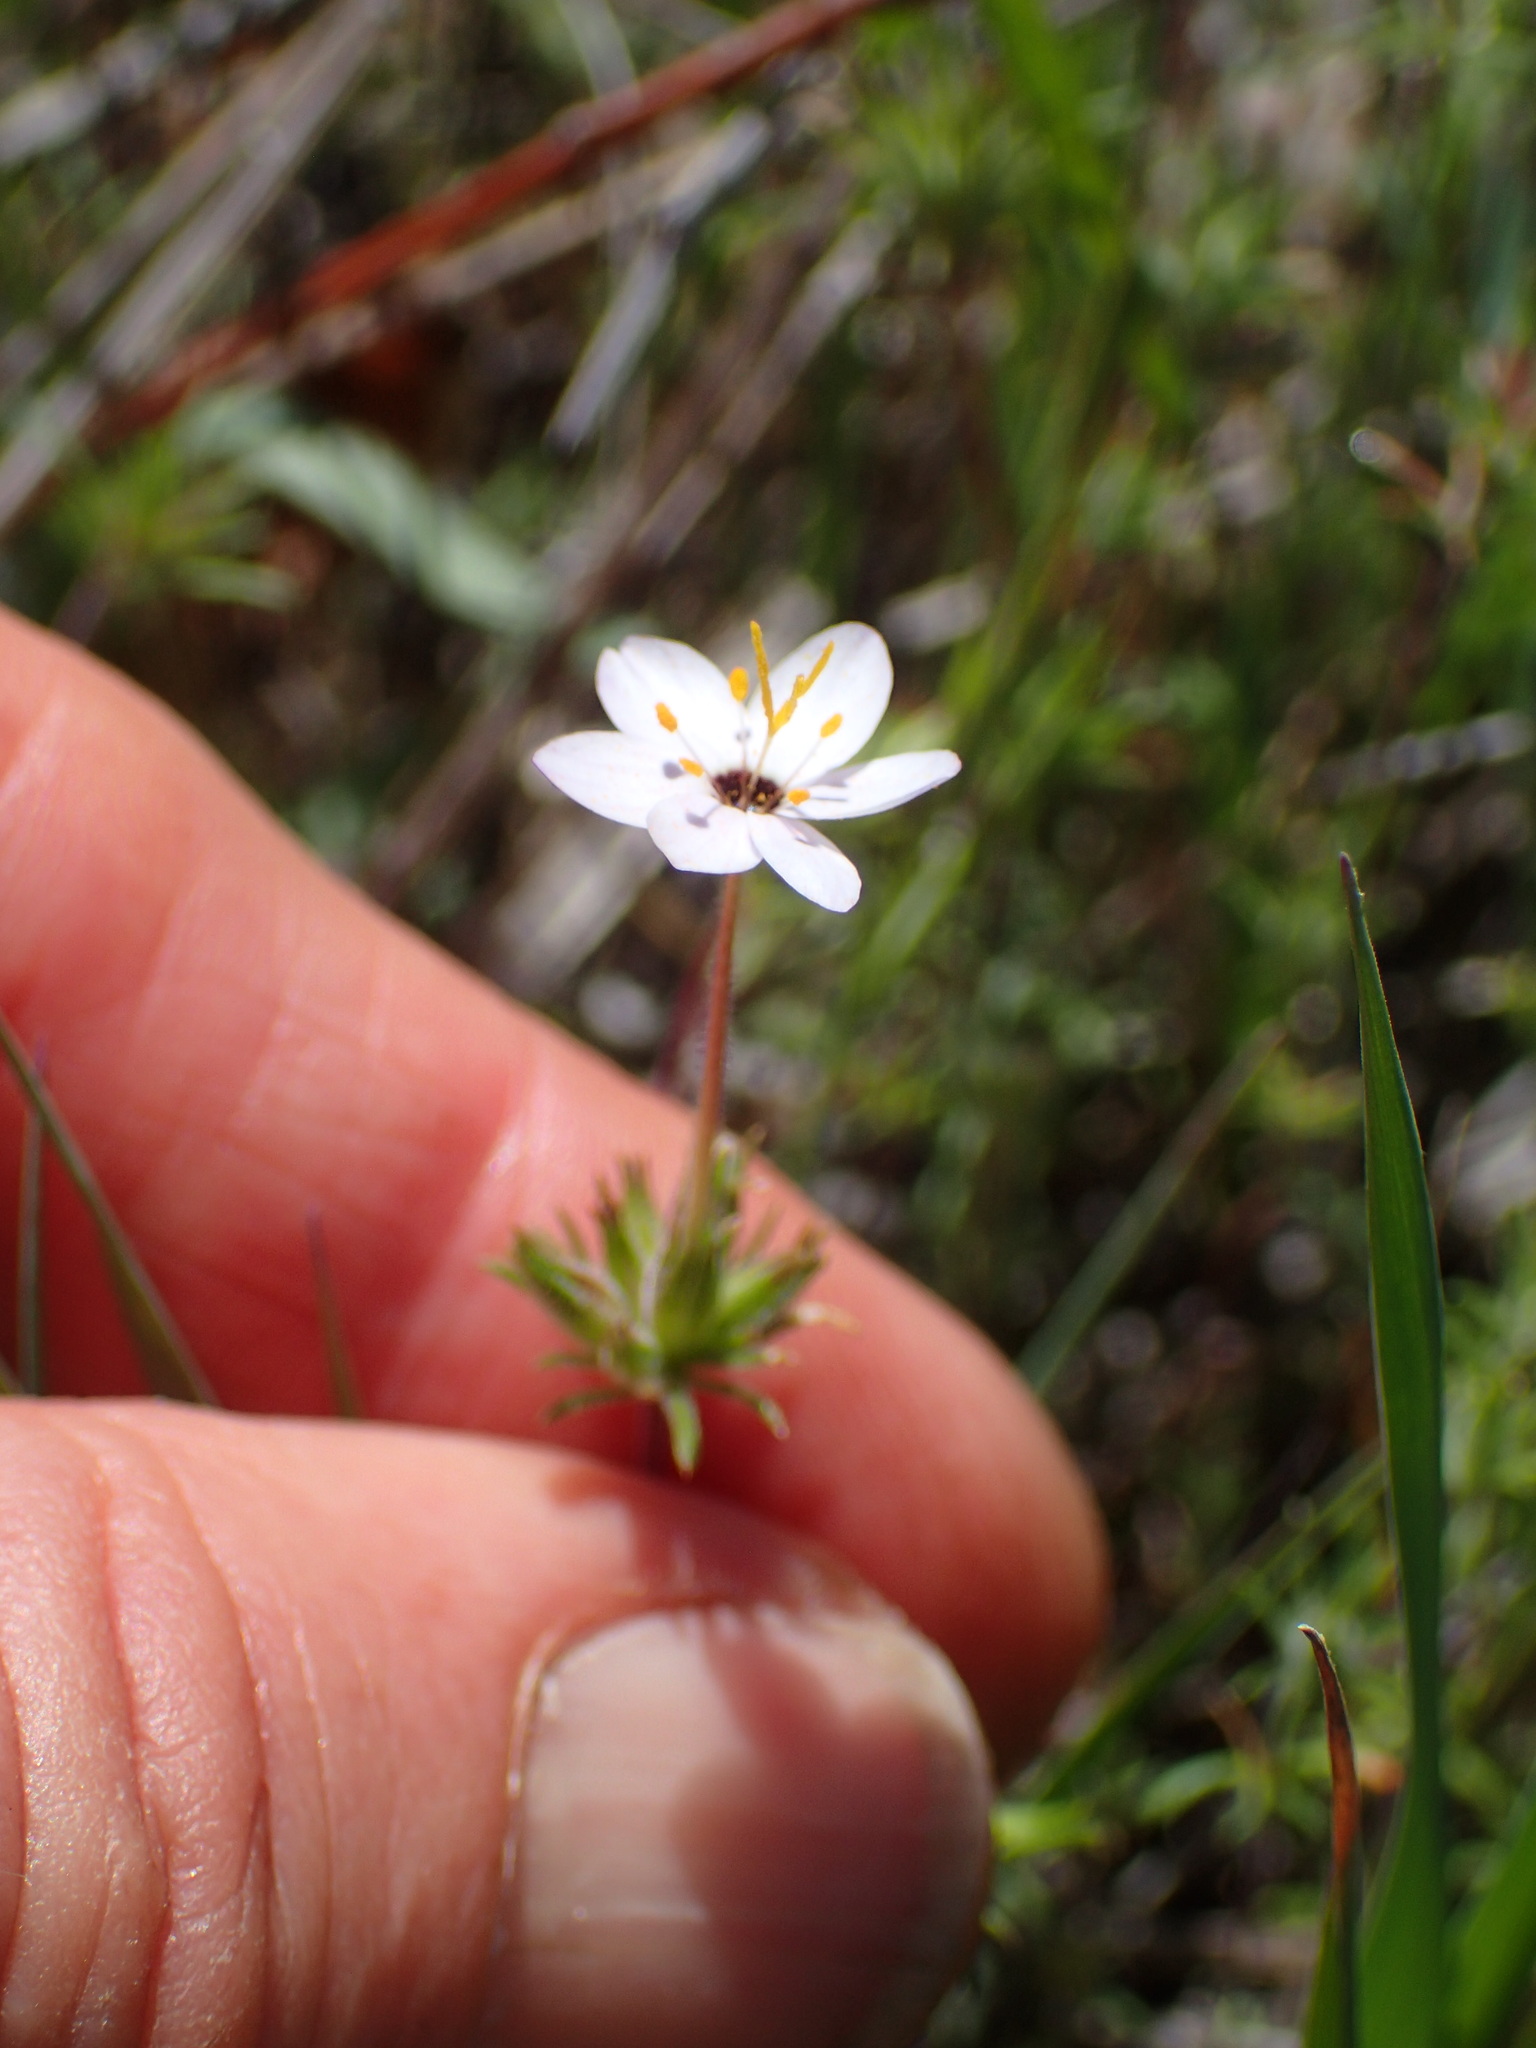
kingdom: Plantae
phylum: Tracheophyta
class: Magnoliopsida
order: Ericales
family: Polemoniaceae
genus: Leptosiphon
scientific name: Leptosiphon parviflorus
